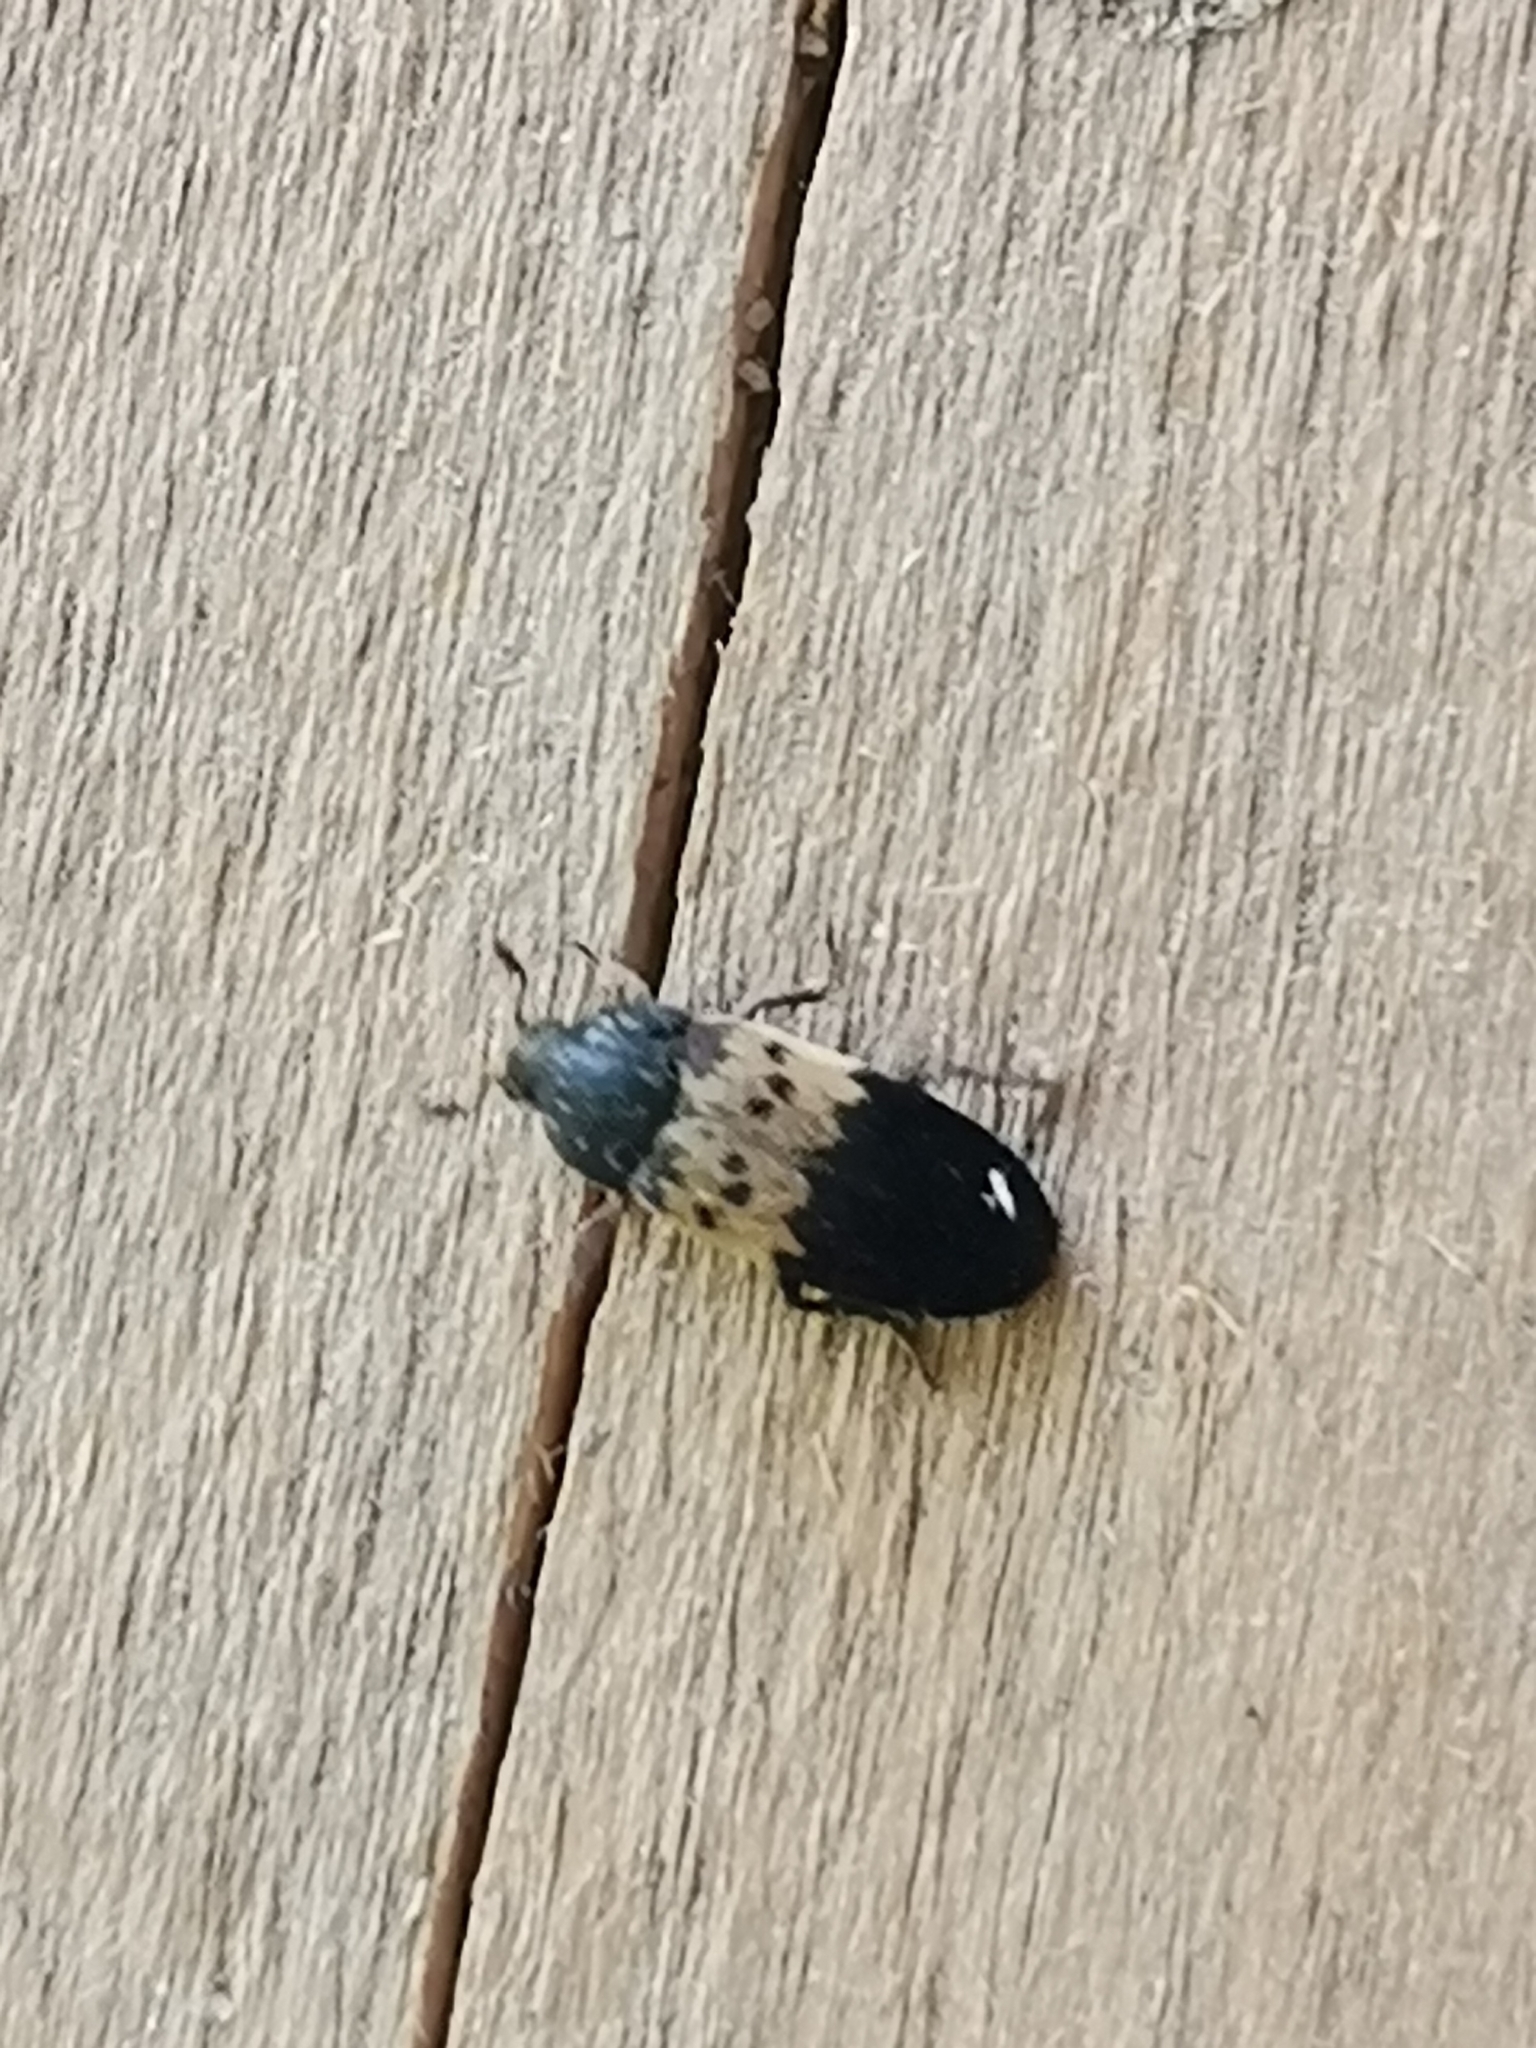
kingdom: Animalia
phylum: Arthropoda
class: Insecta
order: Coleoptera
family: Dermestidae
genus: Dermestes
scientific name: Dermestes lardarius
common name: Larder beetle
